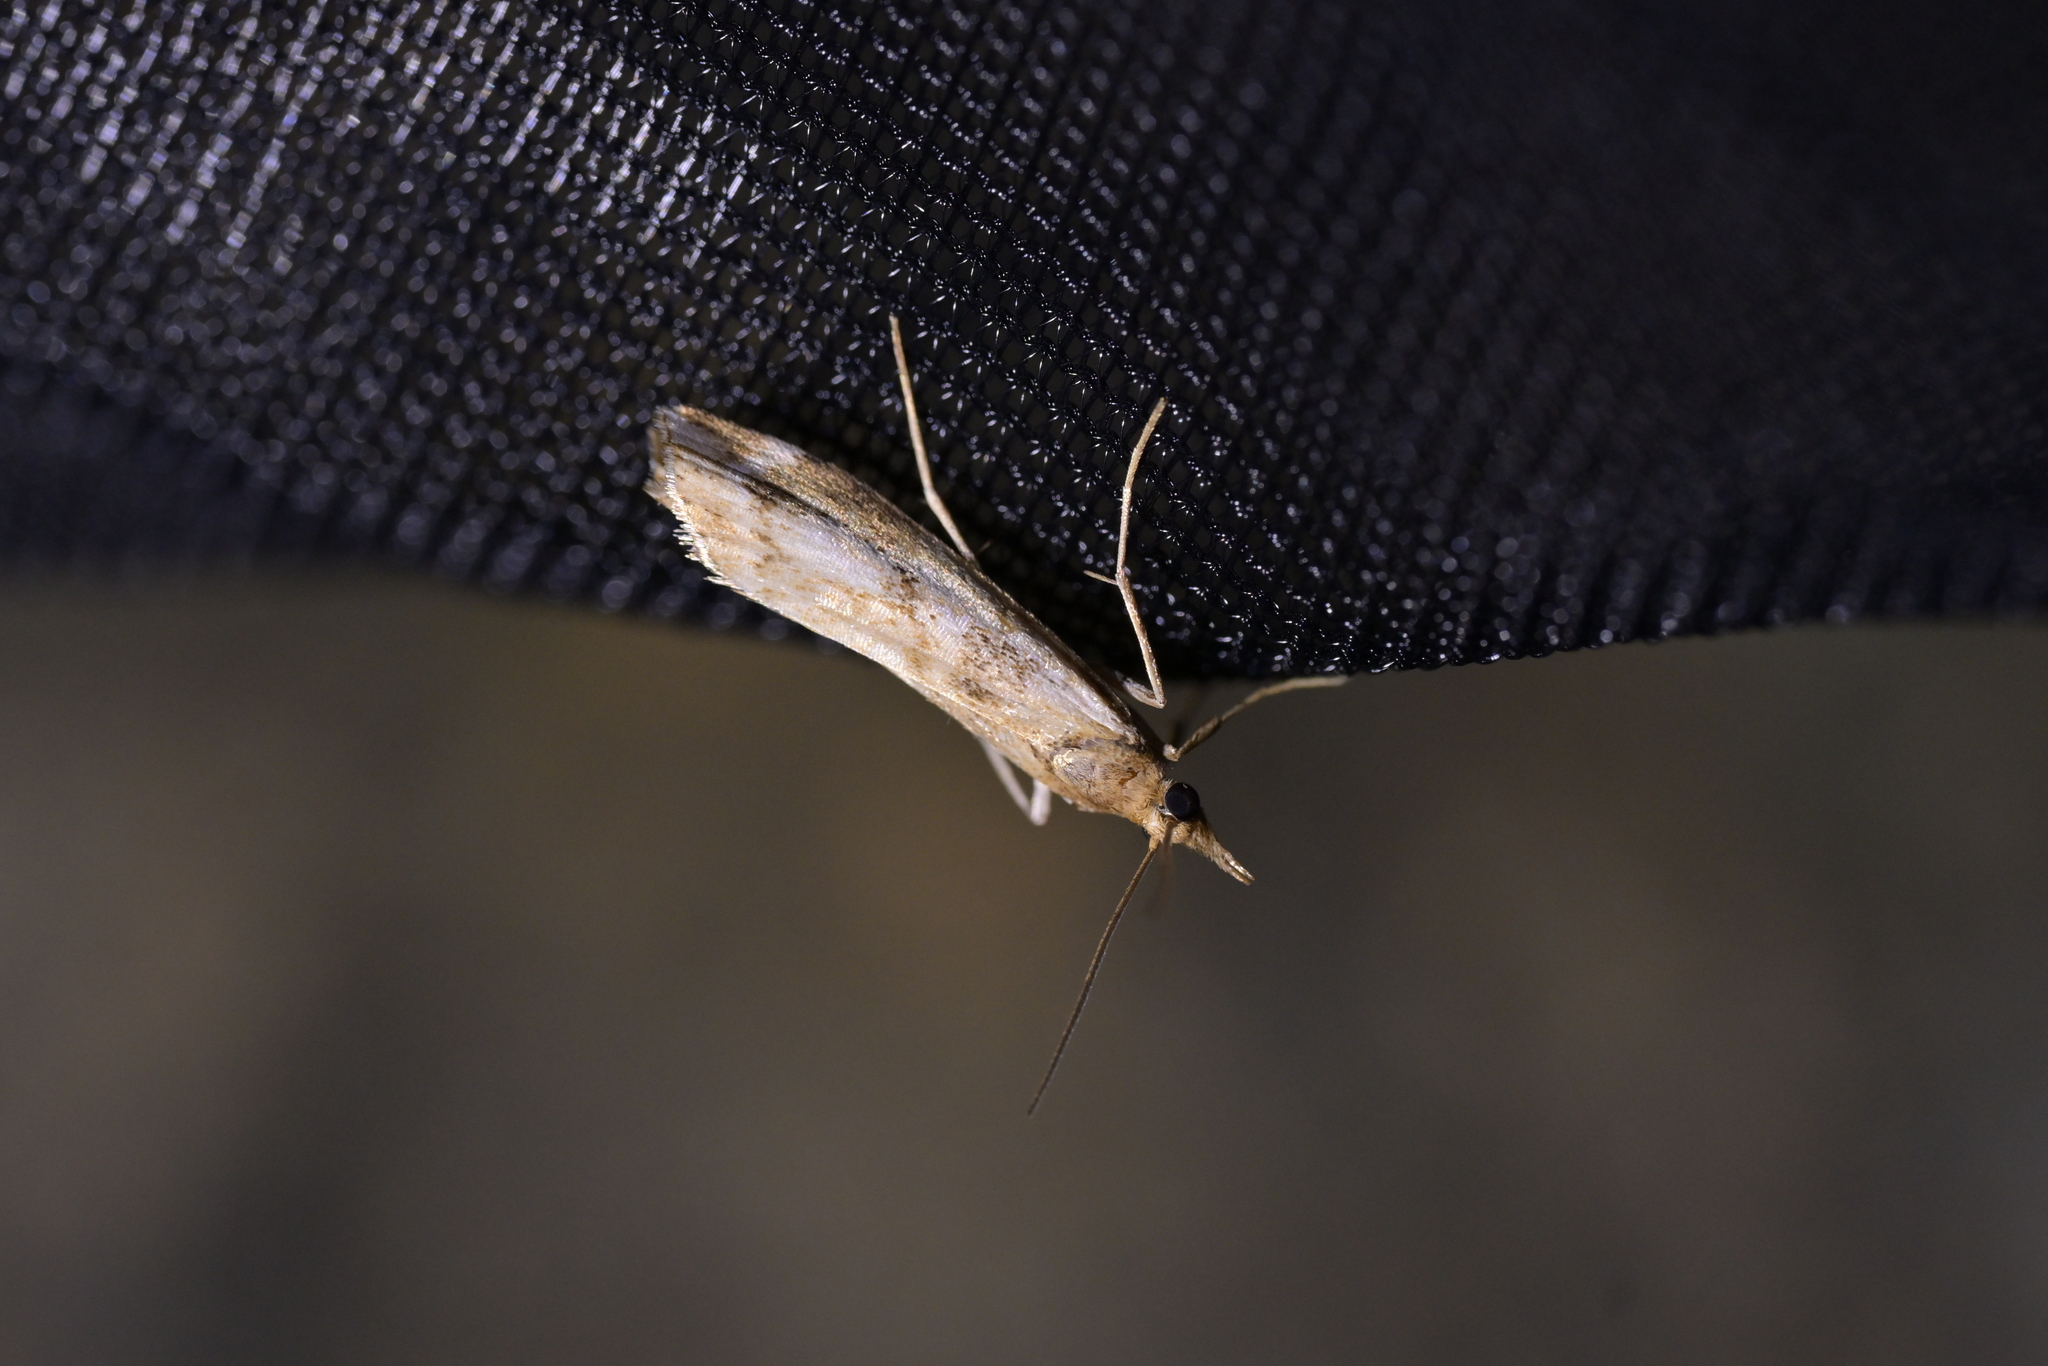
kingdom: Animalia
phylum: Arthropoda
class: Insecta
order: Lepidoptera
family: Crambidae
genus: Orocrambus
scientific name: Orocrambus vulgaris
